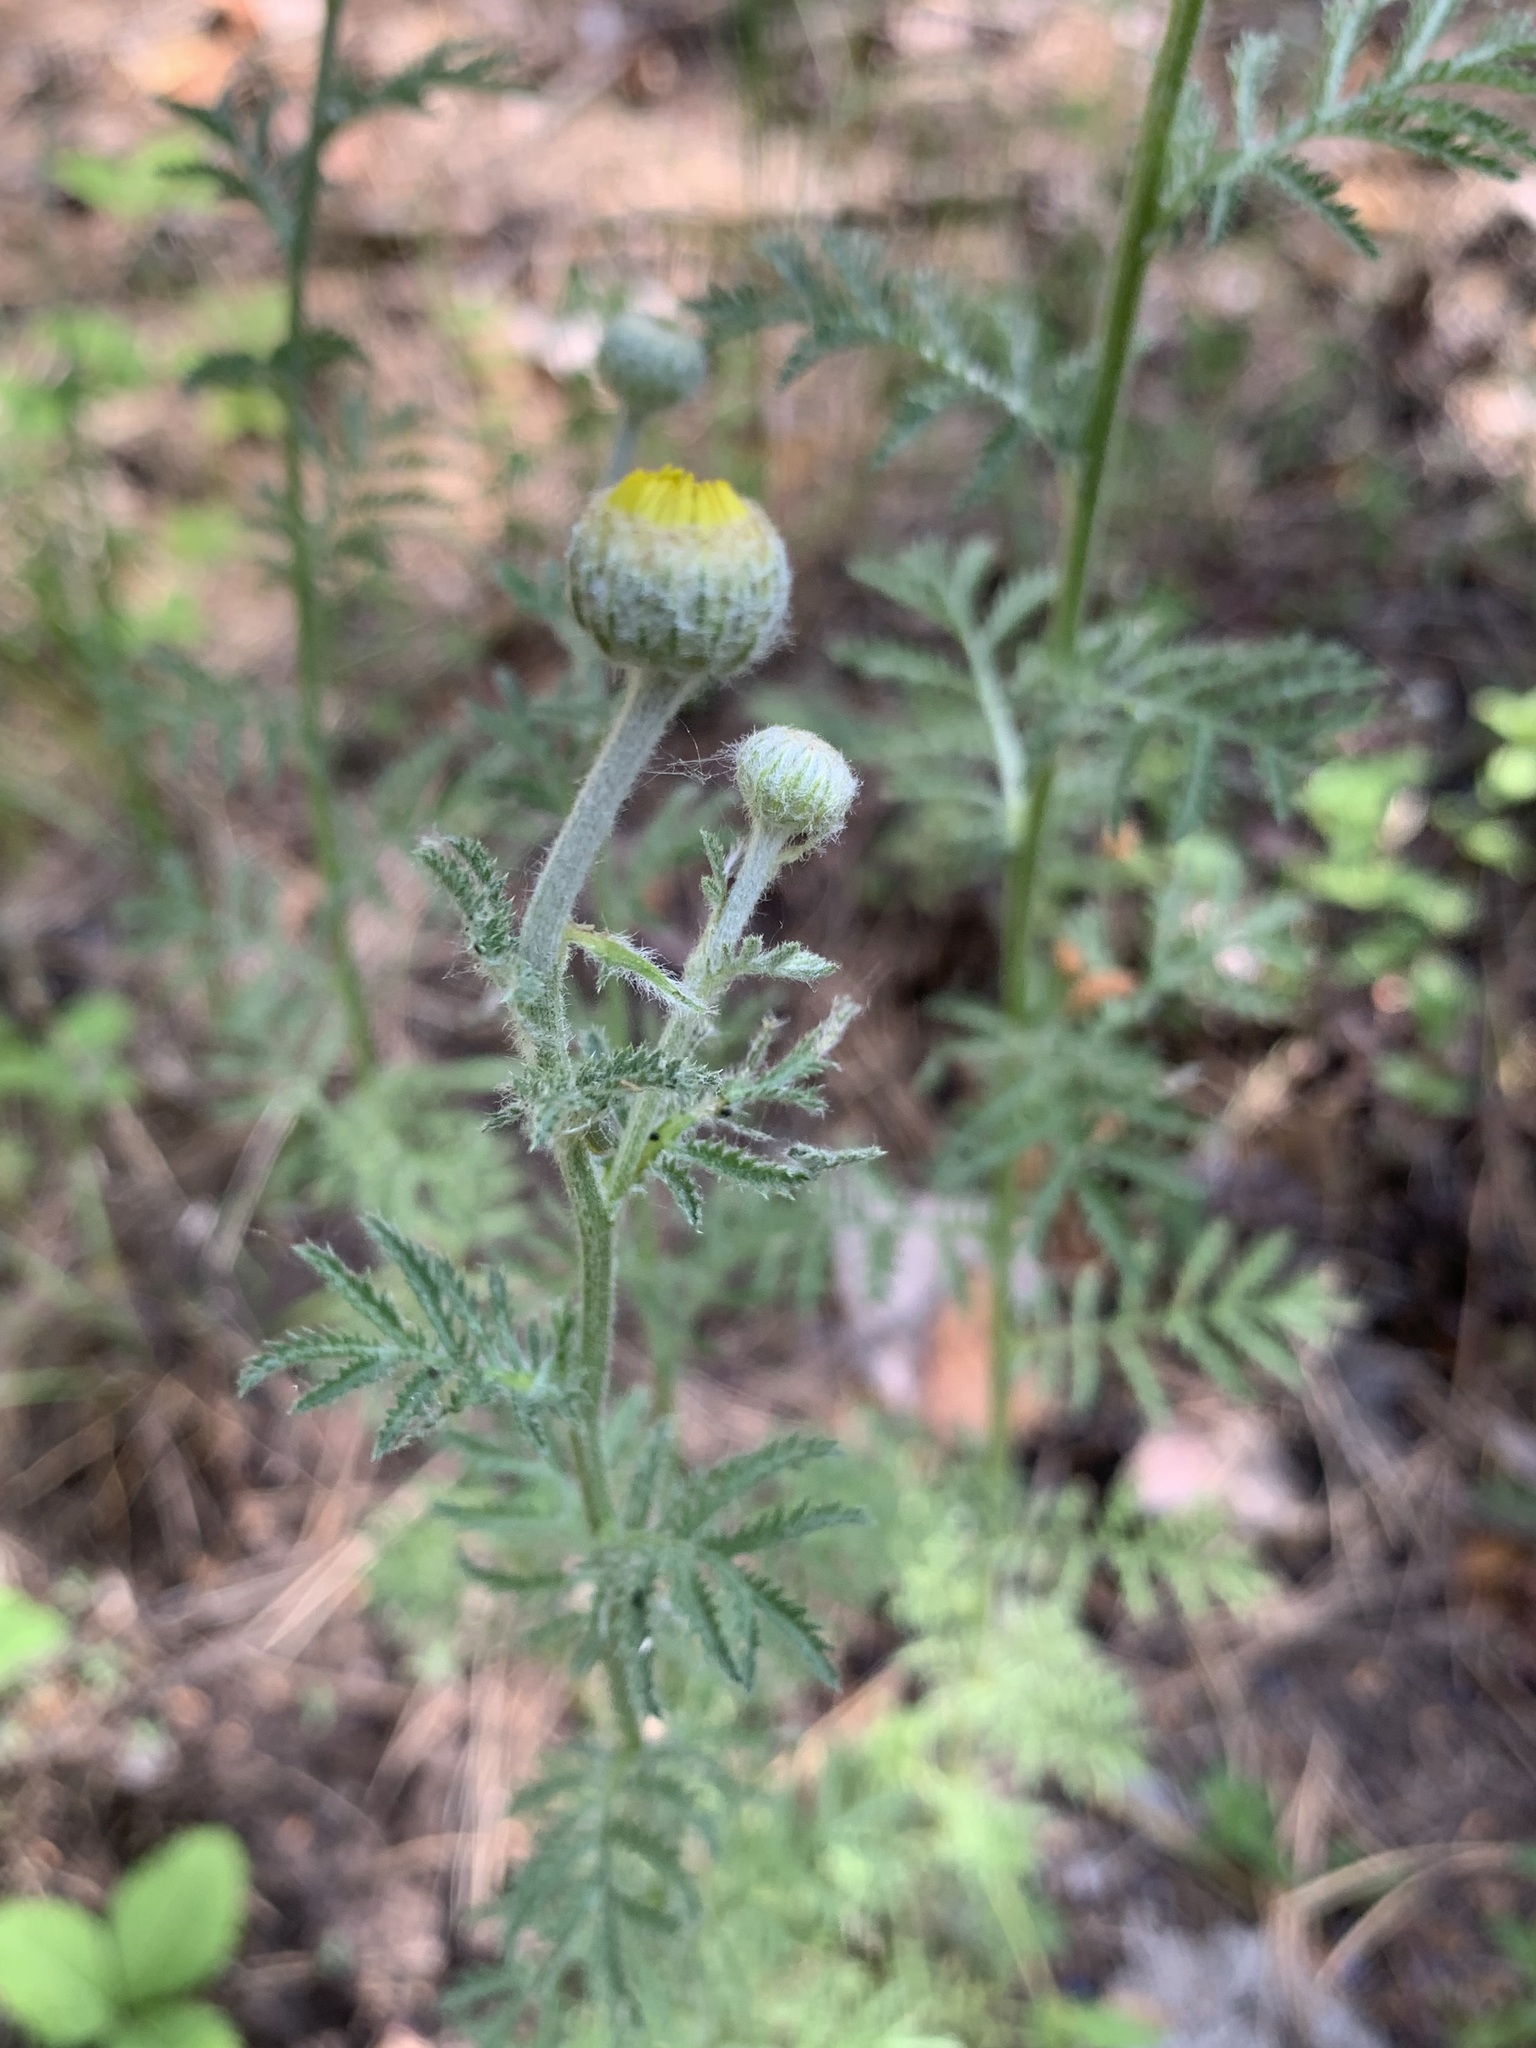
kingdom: Plantae
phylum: Tracheophyta
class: Magnoliopsida
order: Asterales
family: Asteraceae
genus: Cota
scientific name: Cota tinctoria
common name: Golden chamomile
